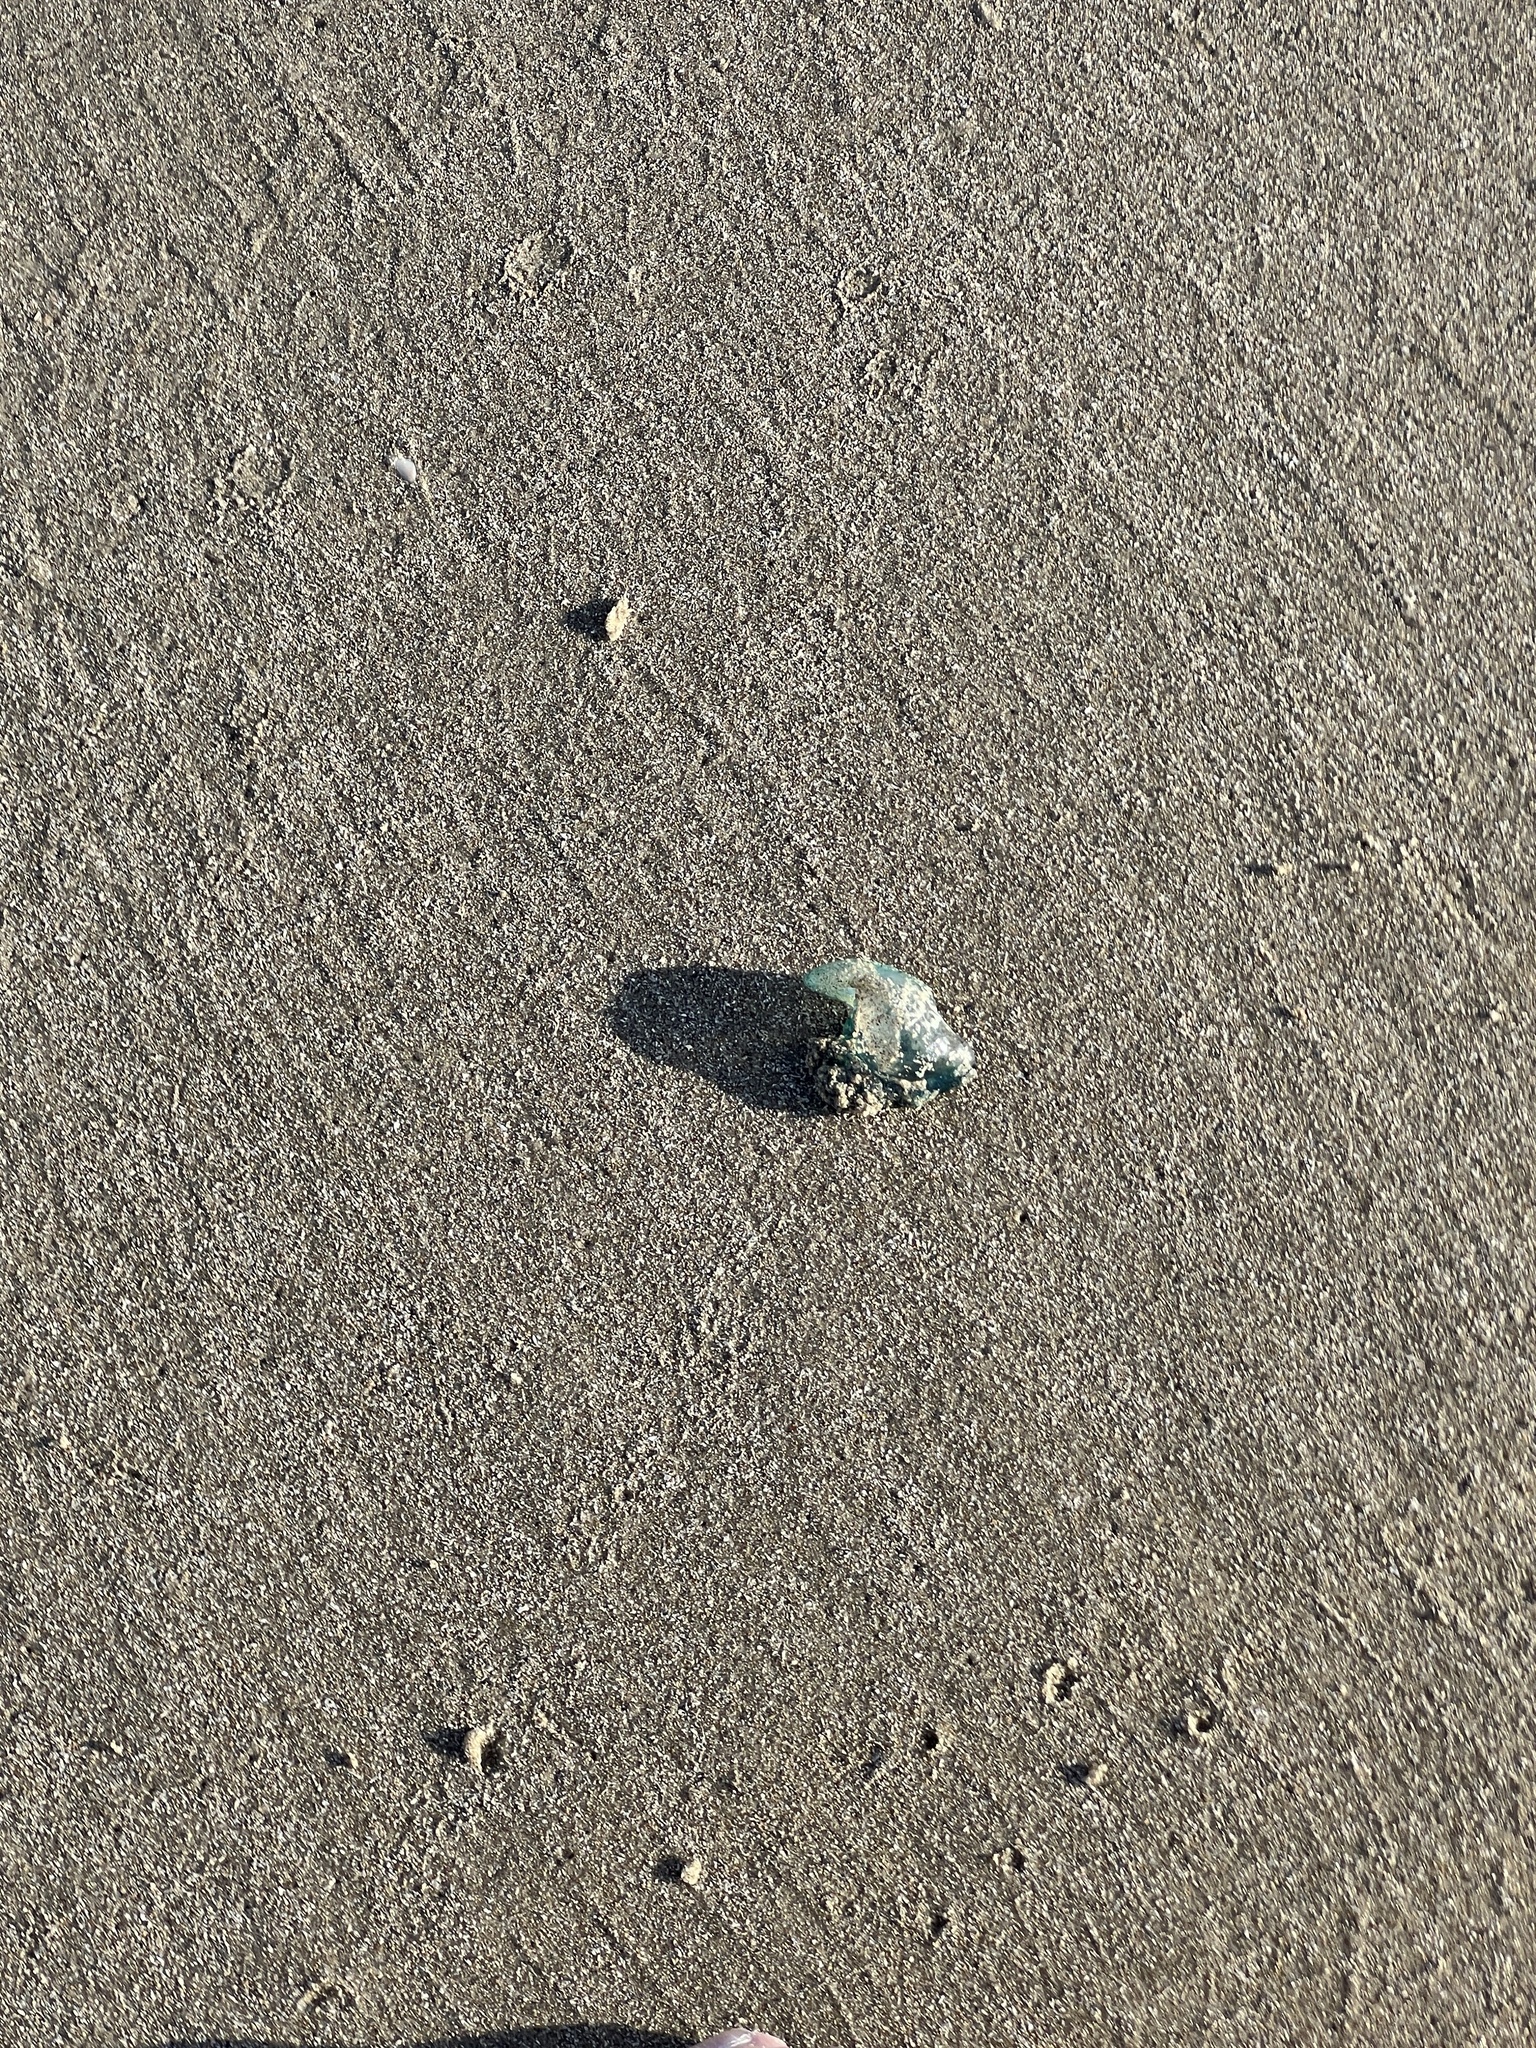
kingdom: Animalia
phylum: Cnidaria
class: Hydrozoa
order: Siphonophorae
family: Physaliidae
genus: Physalia
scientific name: Physalia physalis
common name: Portuguese man-of-war
